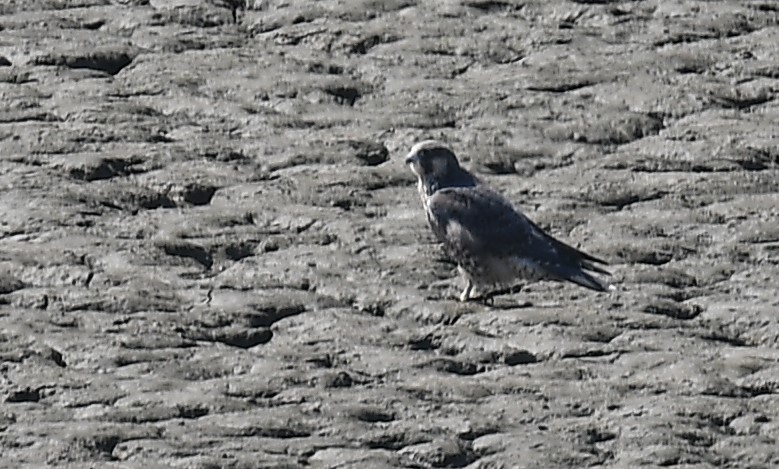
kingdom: Animalia
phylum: Chordata
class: Aves
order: Falconiformes
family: Falconidae
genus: Falco
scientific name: Falco peregrinus
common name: Peregrine falcon
